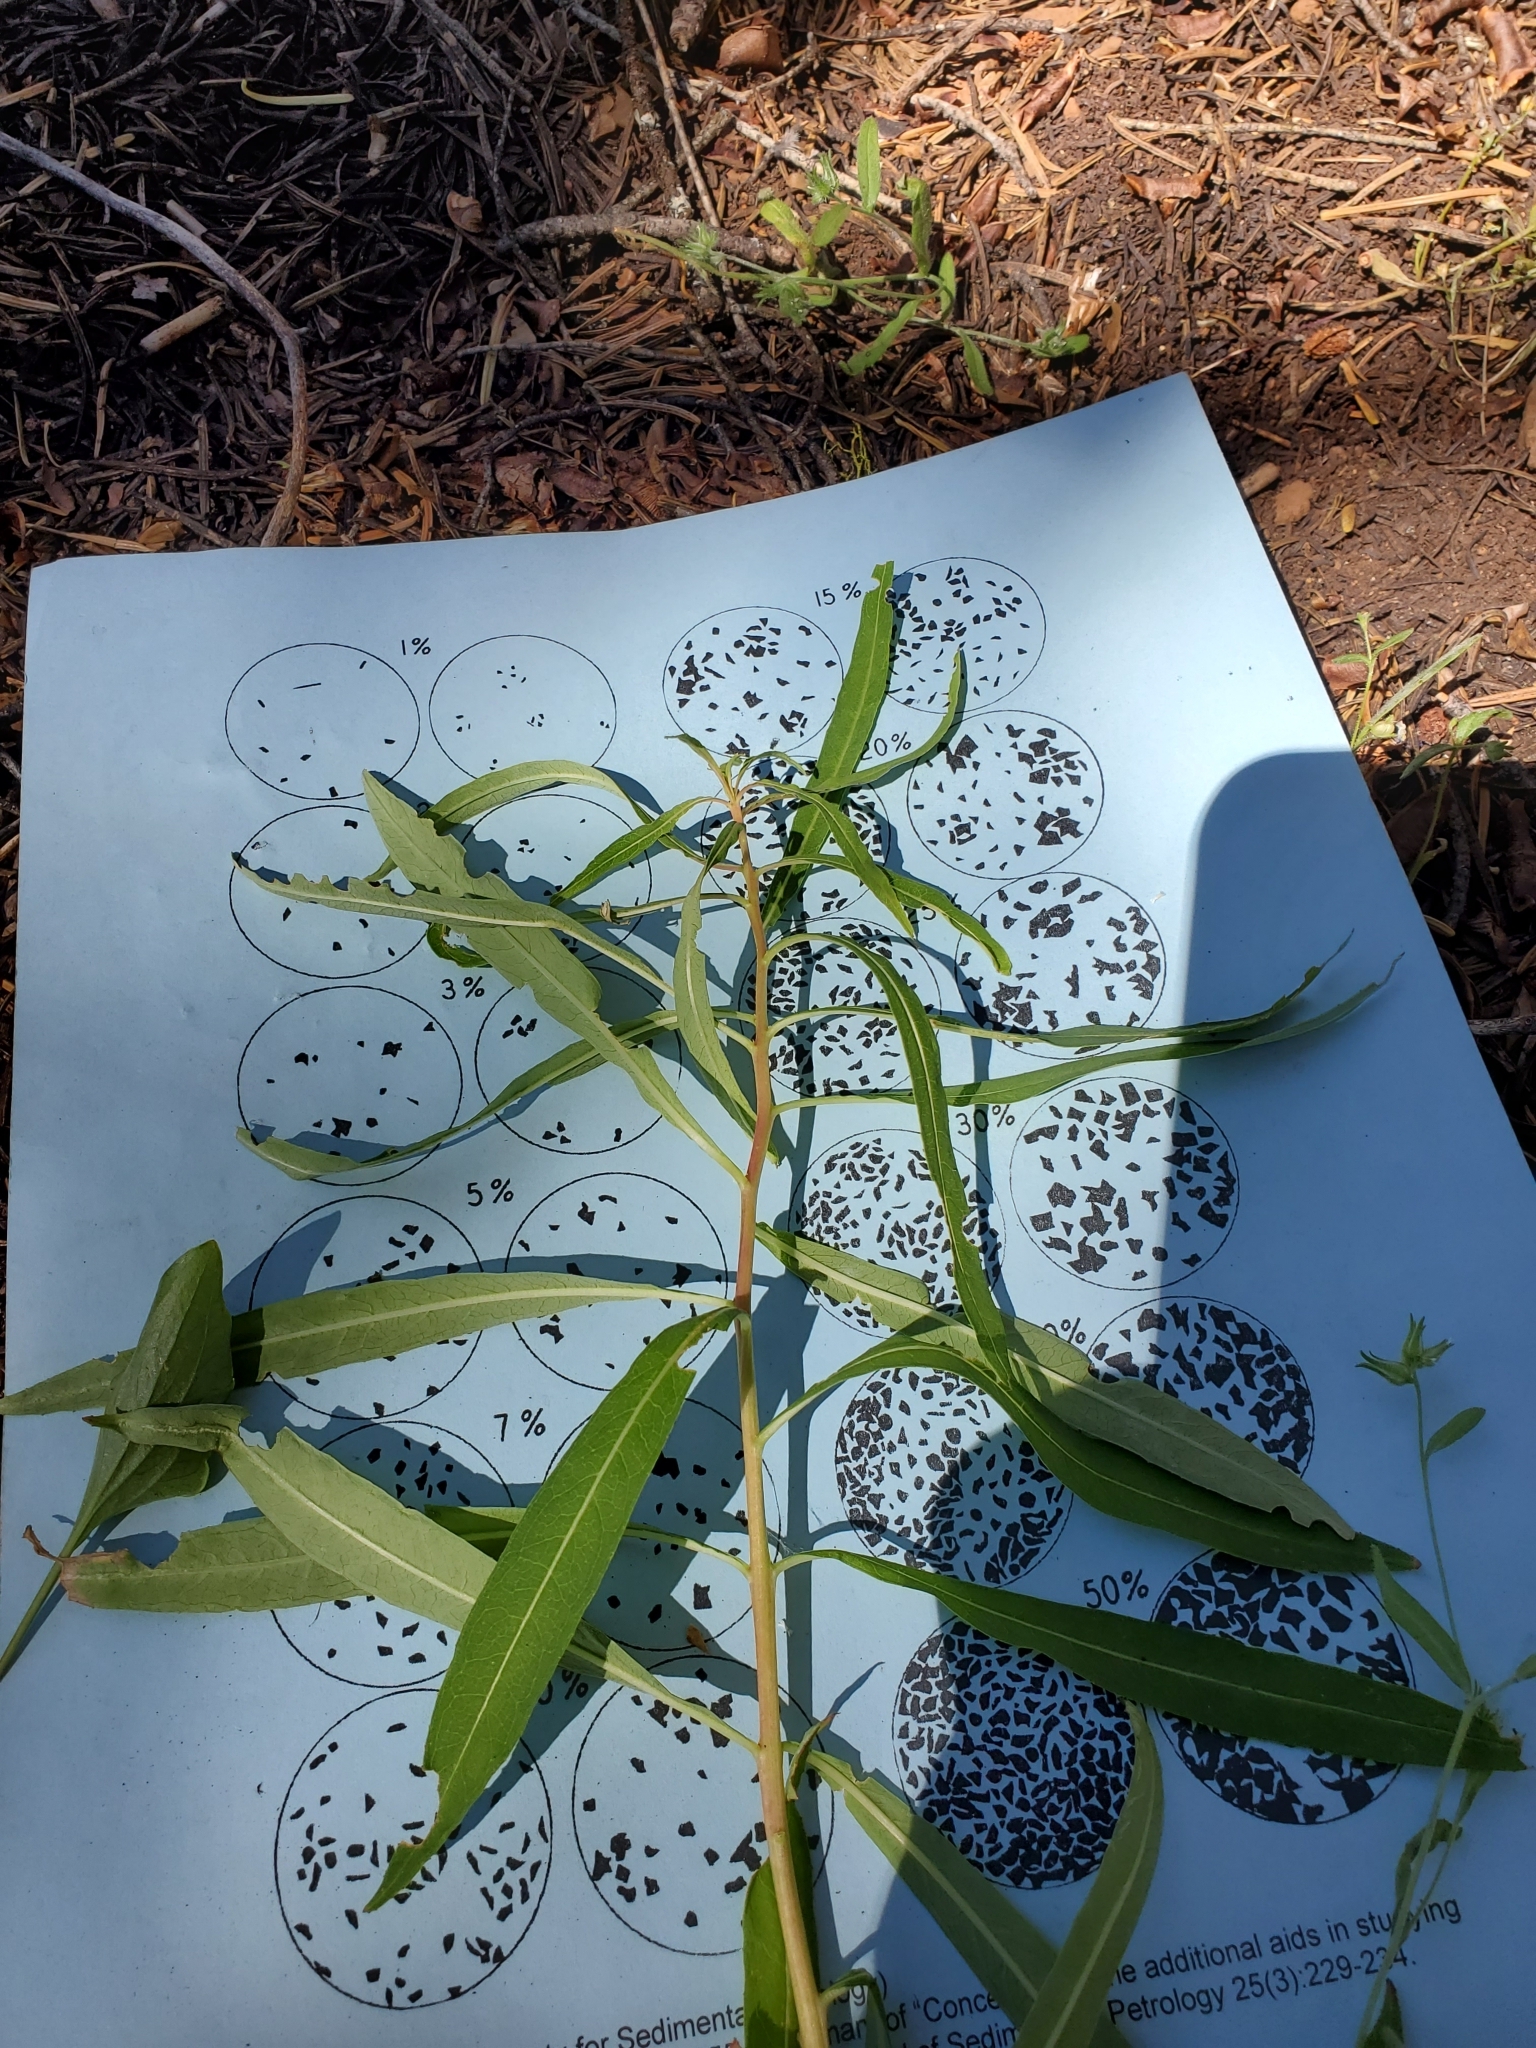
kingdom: Plantae
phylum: Tracheophyta
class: Magnoliopsida
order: Myrtales
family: Onagraceae
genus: Chamaenerion
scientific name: Chamaenerion angustifolium
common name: Fireweed
